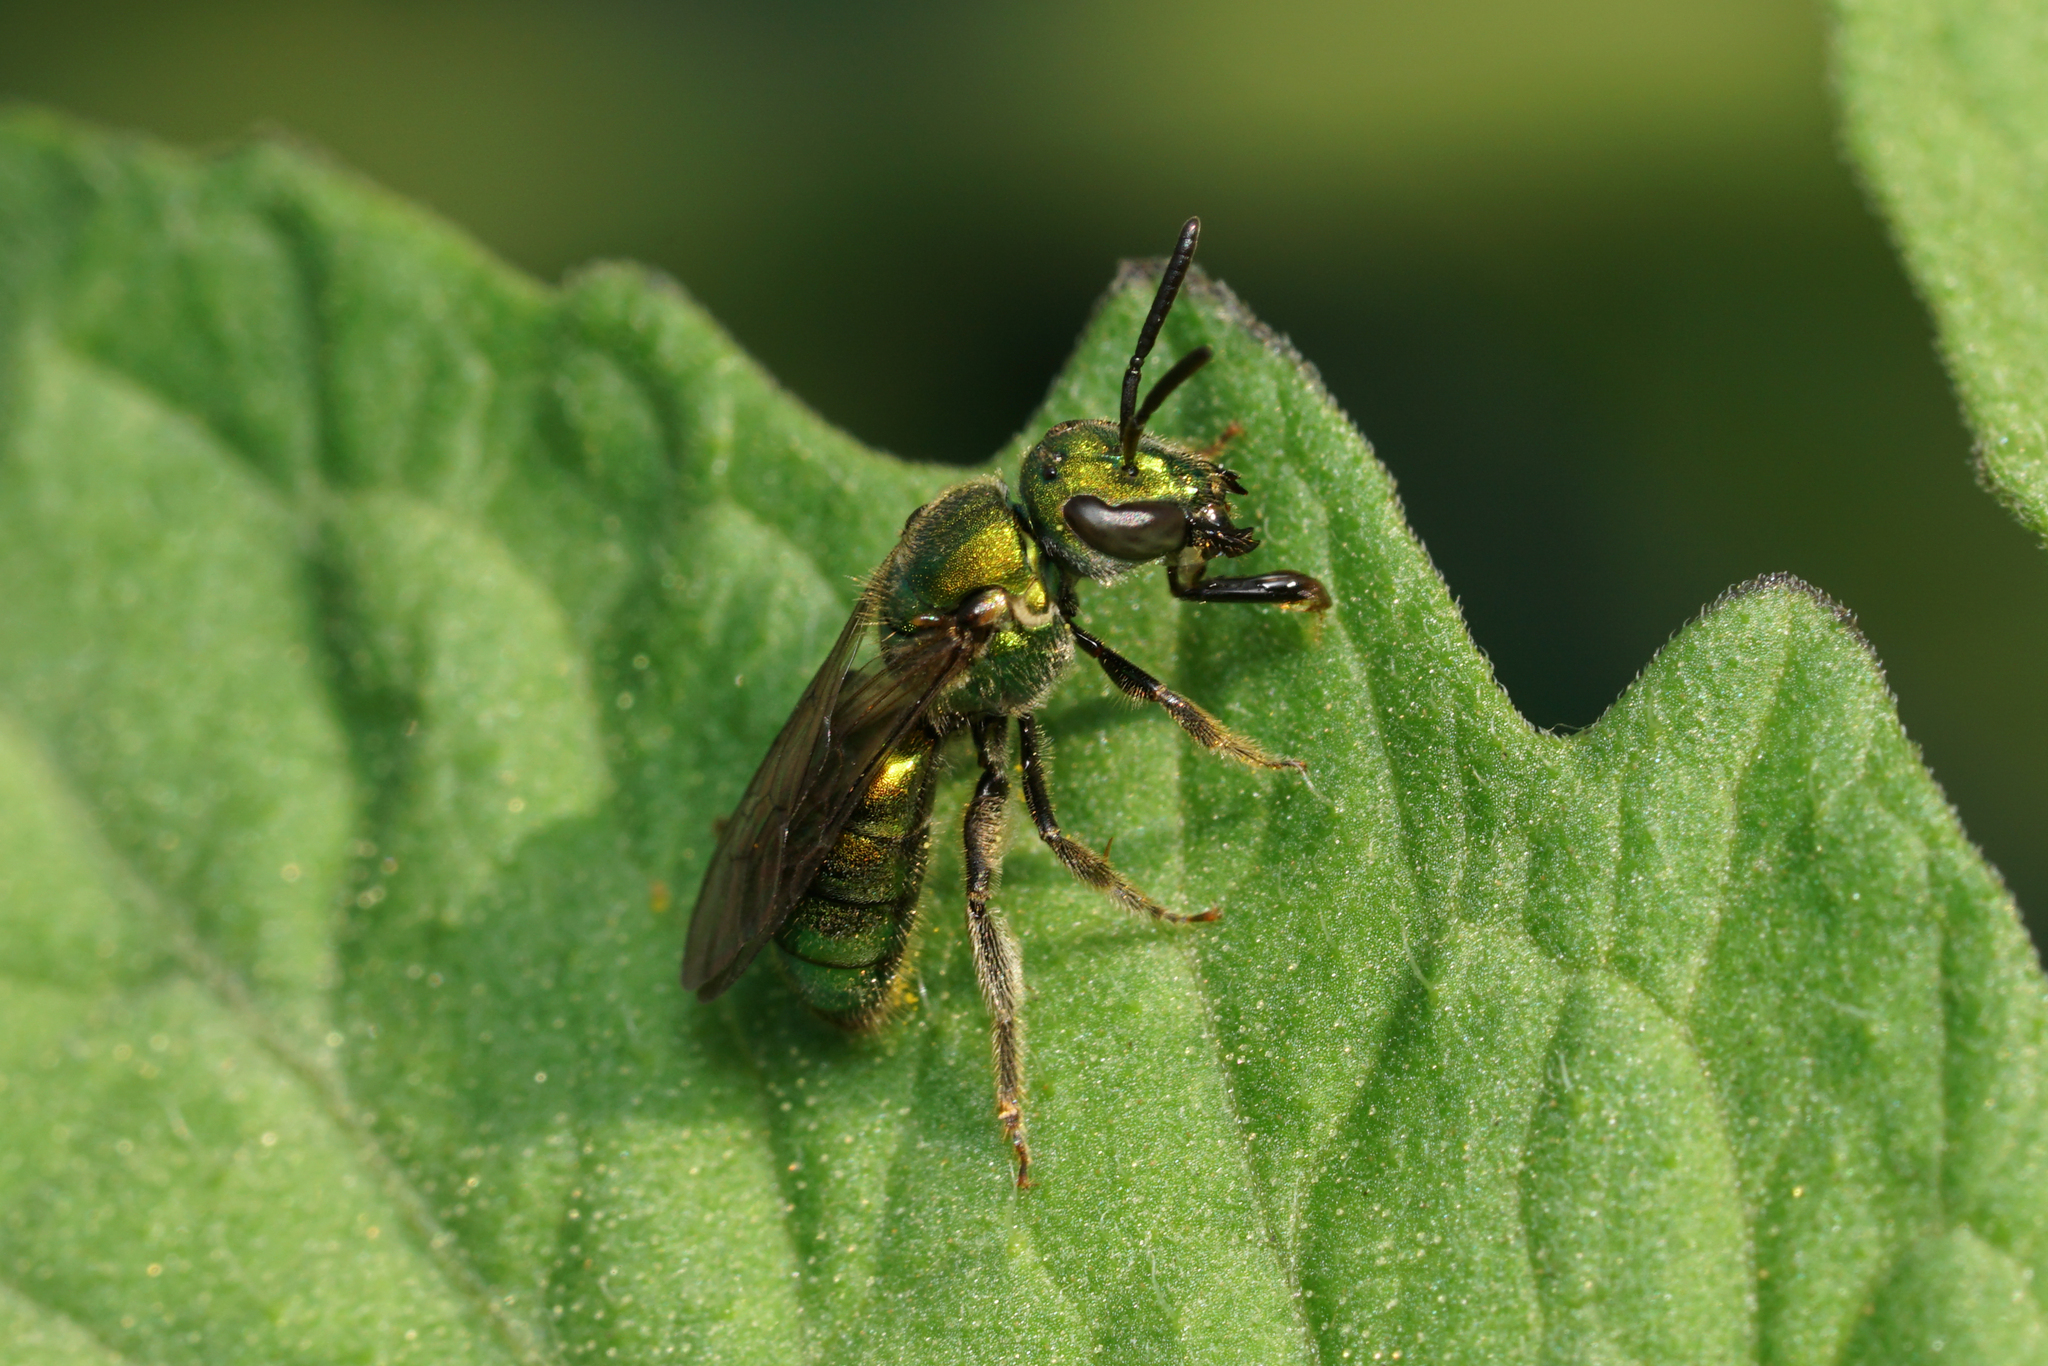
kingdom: Animalia
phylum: Arthropoda
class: Insecta
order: Hymenoptera
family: Halictidae
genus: Augochlora
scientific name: Augochlora pura
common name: Pure green sweat bee
